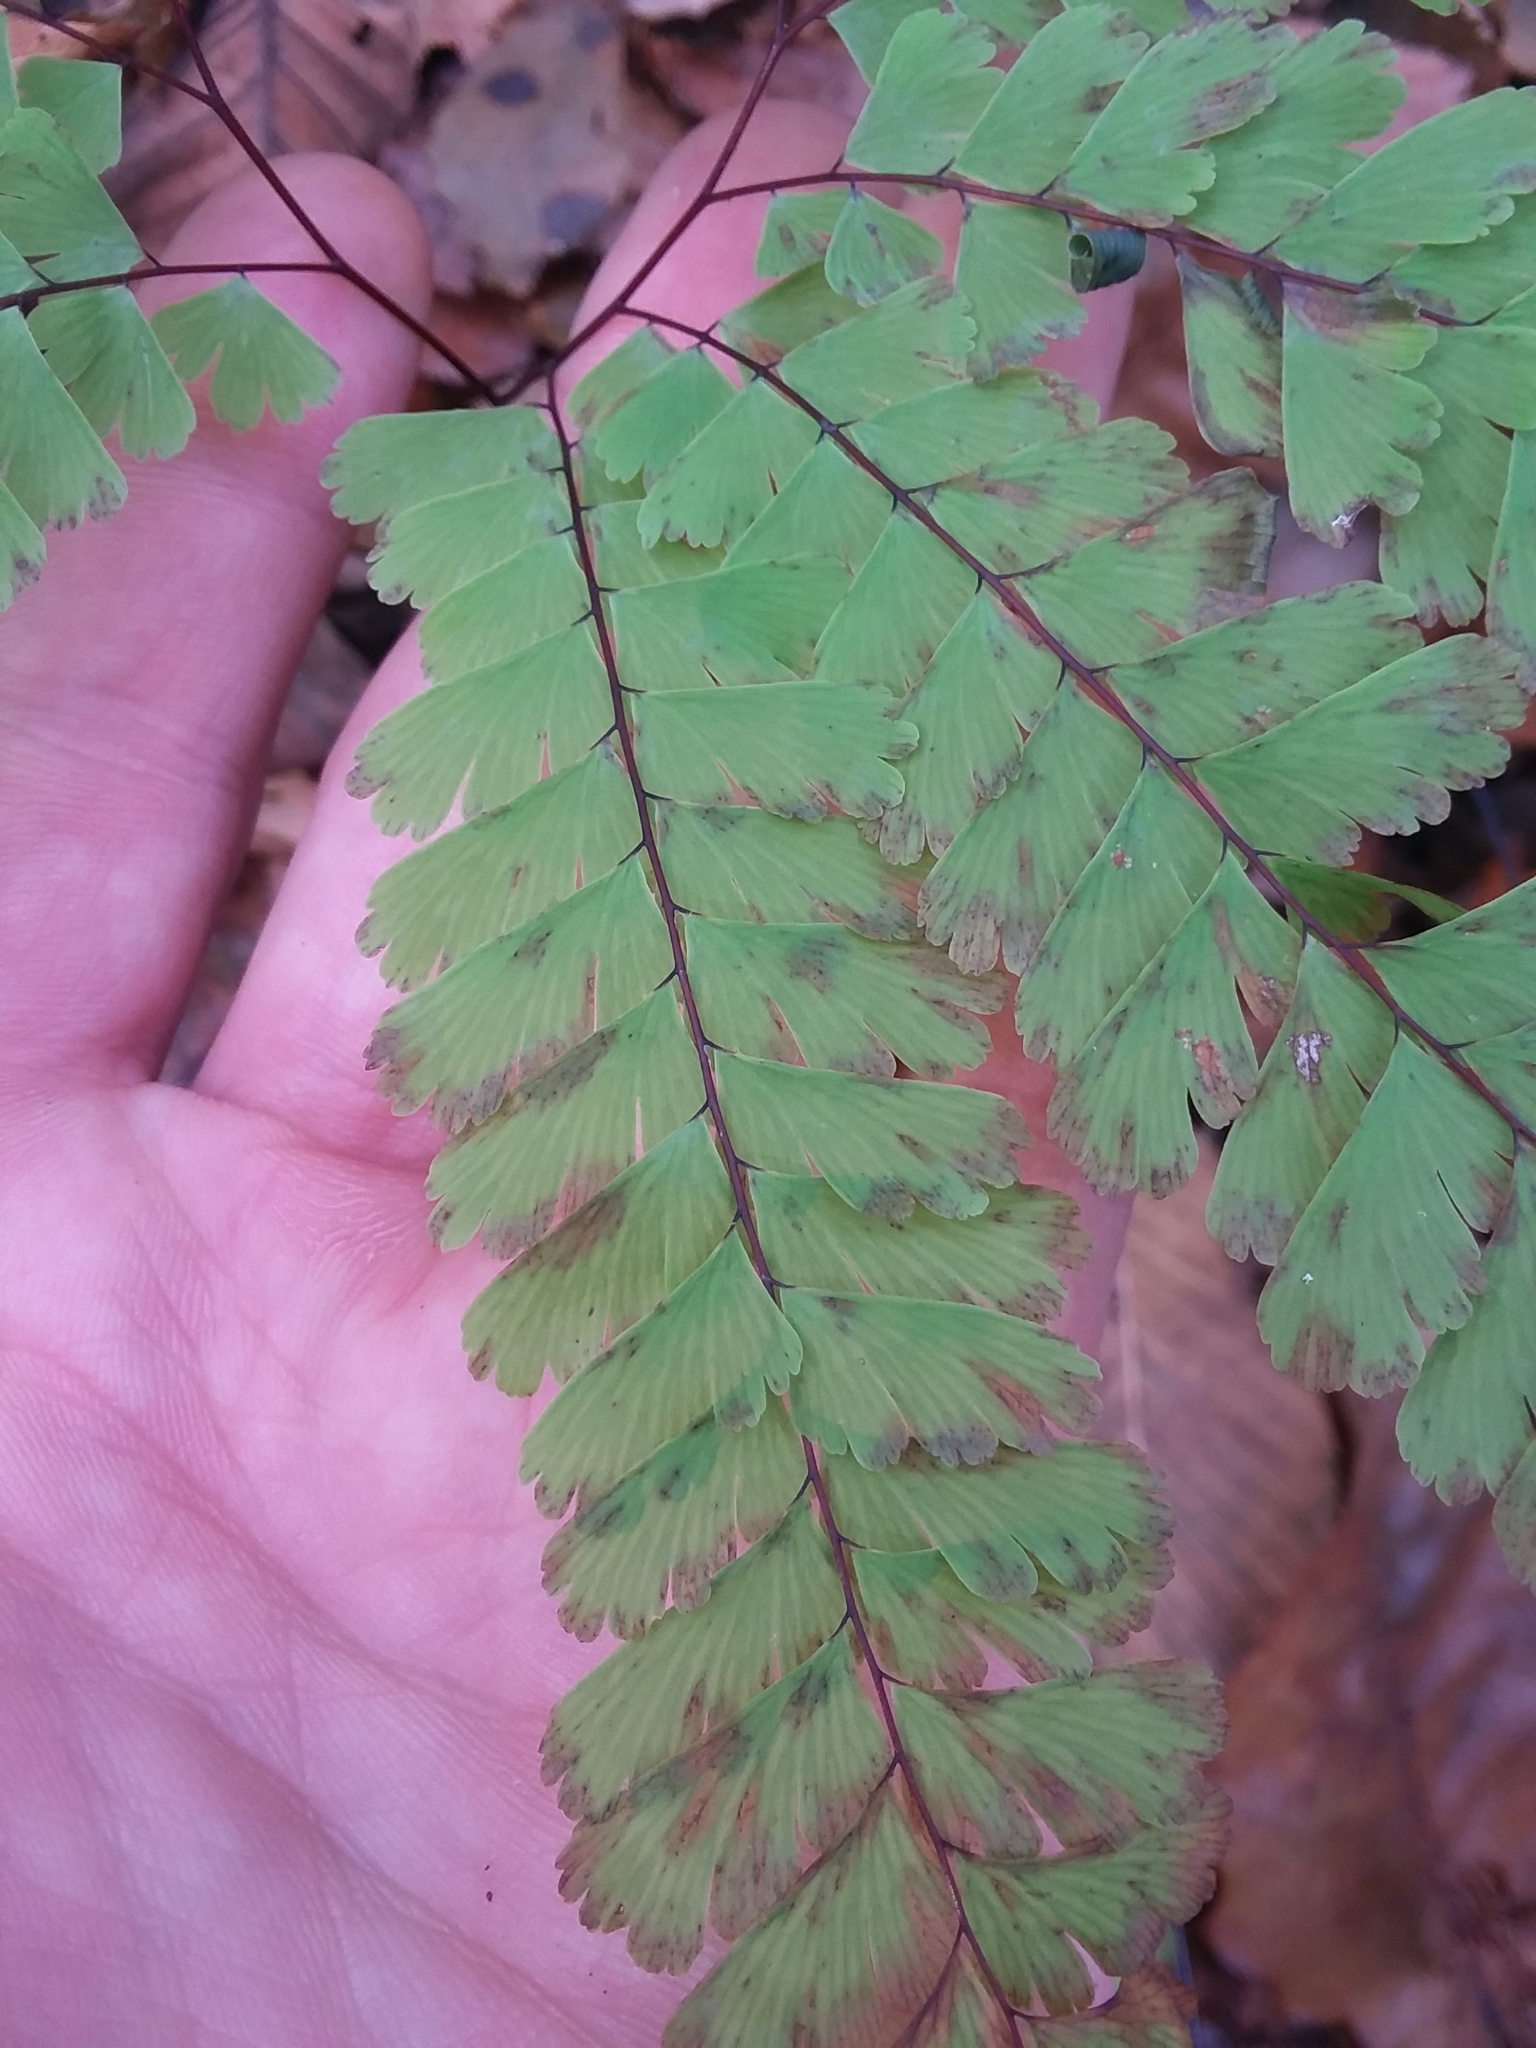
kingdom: Plantae
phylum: Tracheophyta
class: Polypodiopsida
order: Polypodiales
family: Pteridaceae
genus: Adiantum
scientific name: Adiantum pedatum
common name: Five-finger fern
